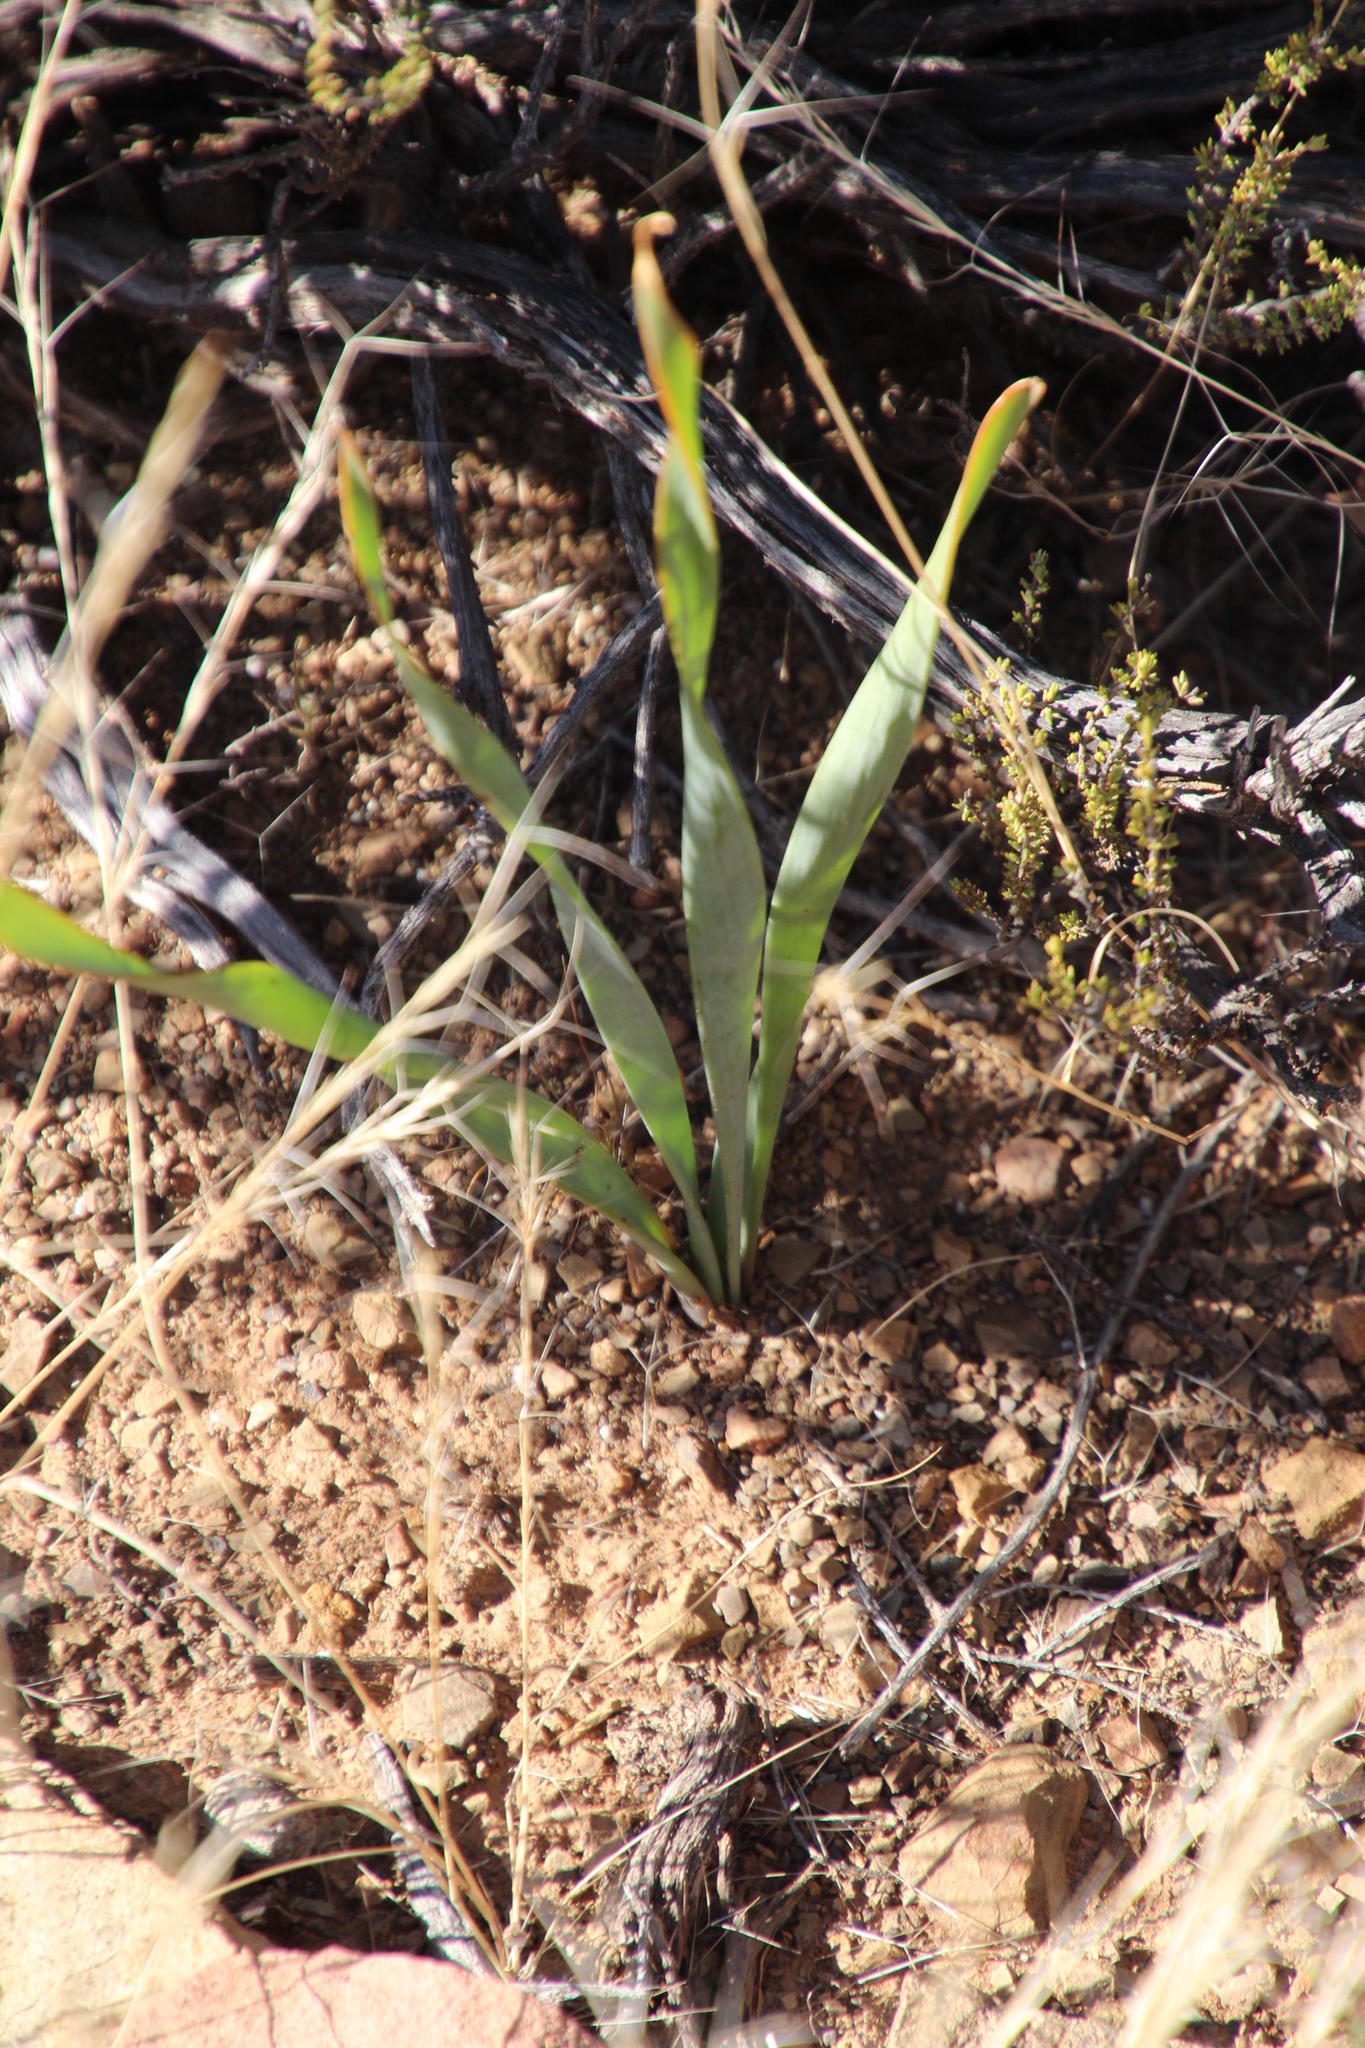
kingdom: Plantae
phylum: Tracheophyta
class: Liliopsida
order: Asparagales
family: Amaryllidaceae
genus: Boophone
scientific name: Boophone disticha
